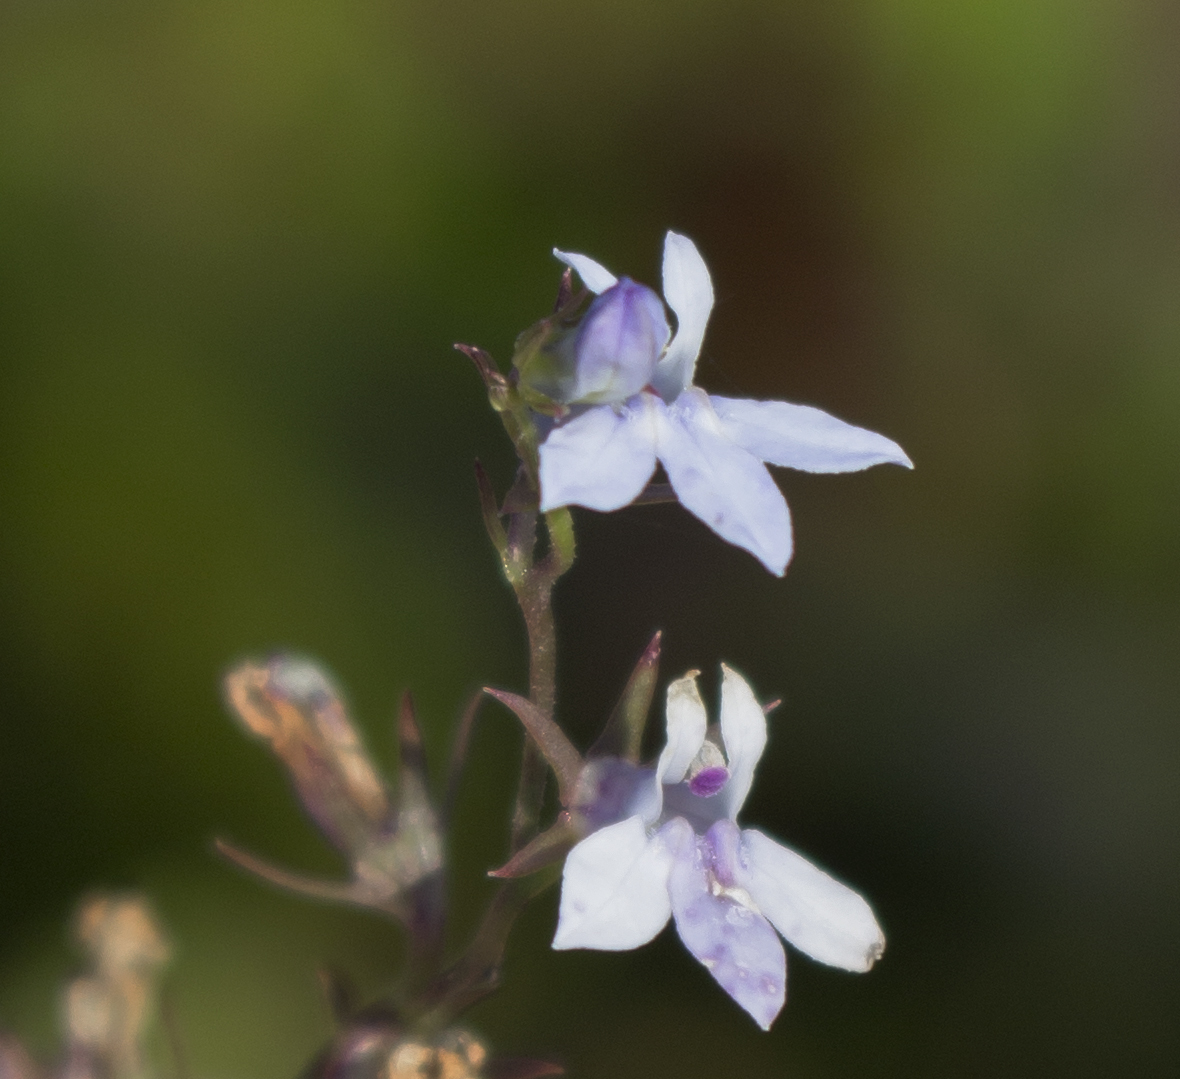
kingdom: Plantae
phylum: Tracheophyta
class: Magnoliopsida
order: Asterales
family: Campanulaceae
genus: Lobelia
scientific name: Lobelia spicata
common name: Pale-spike lobelia
